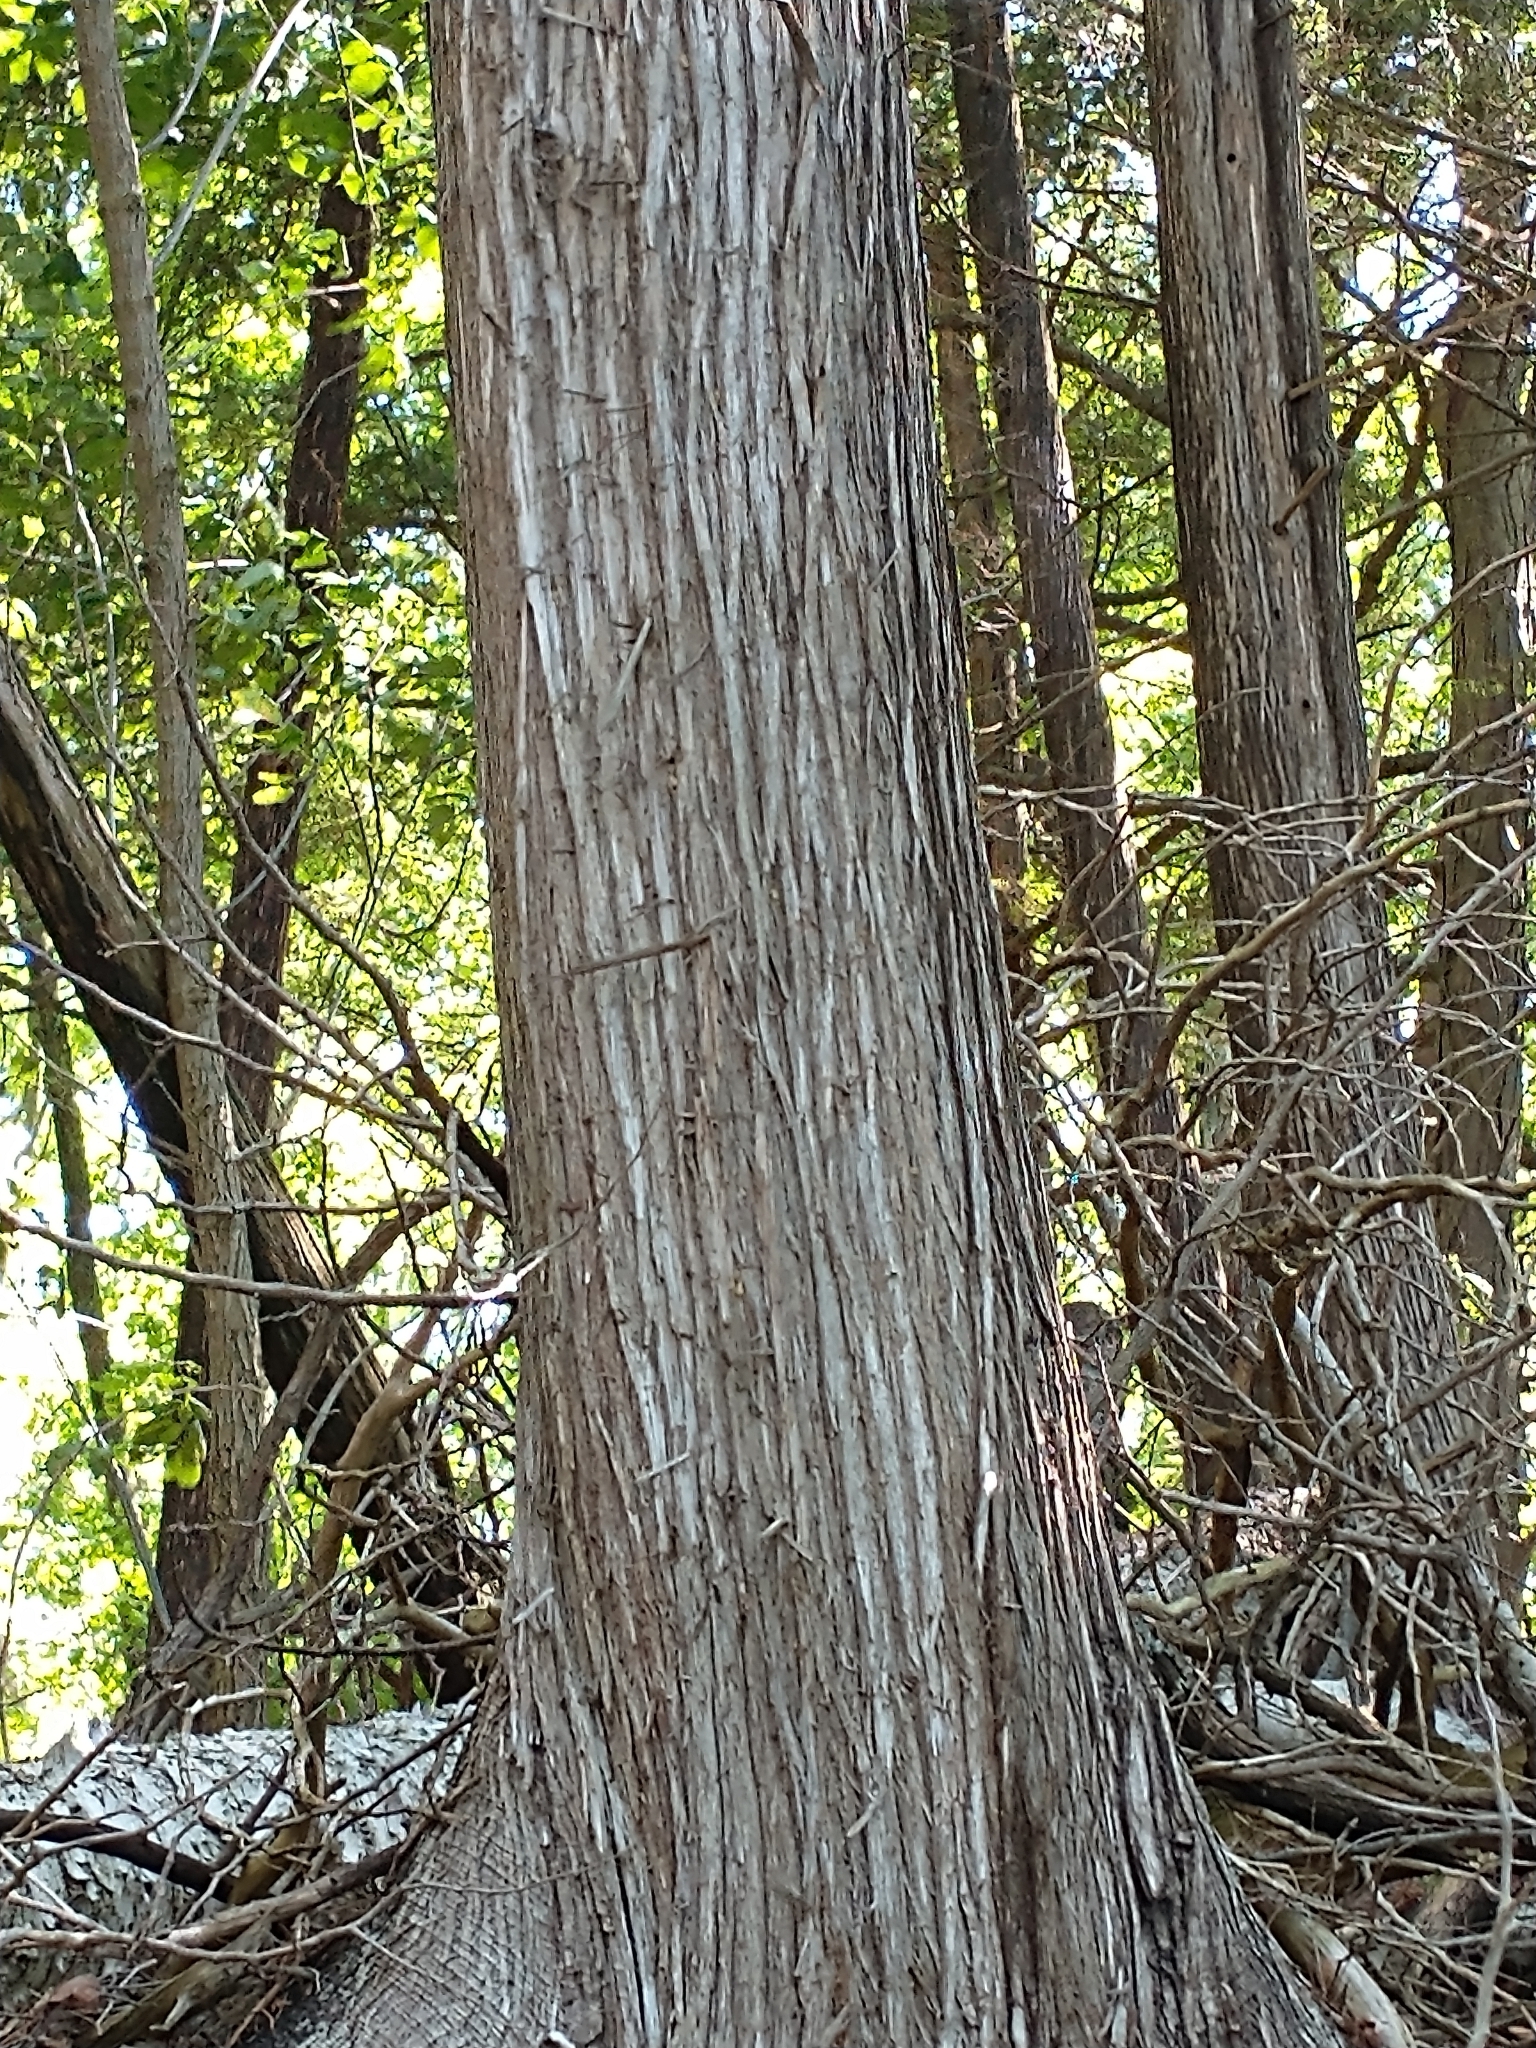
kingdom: Plantae
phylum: Tracheophyta
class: Pinopsida
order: Pinales
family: Cupressaceae
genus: Thuja
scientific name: Thuja occidentalis
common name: Northern white-cedar
